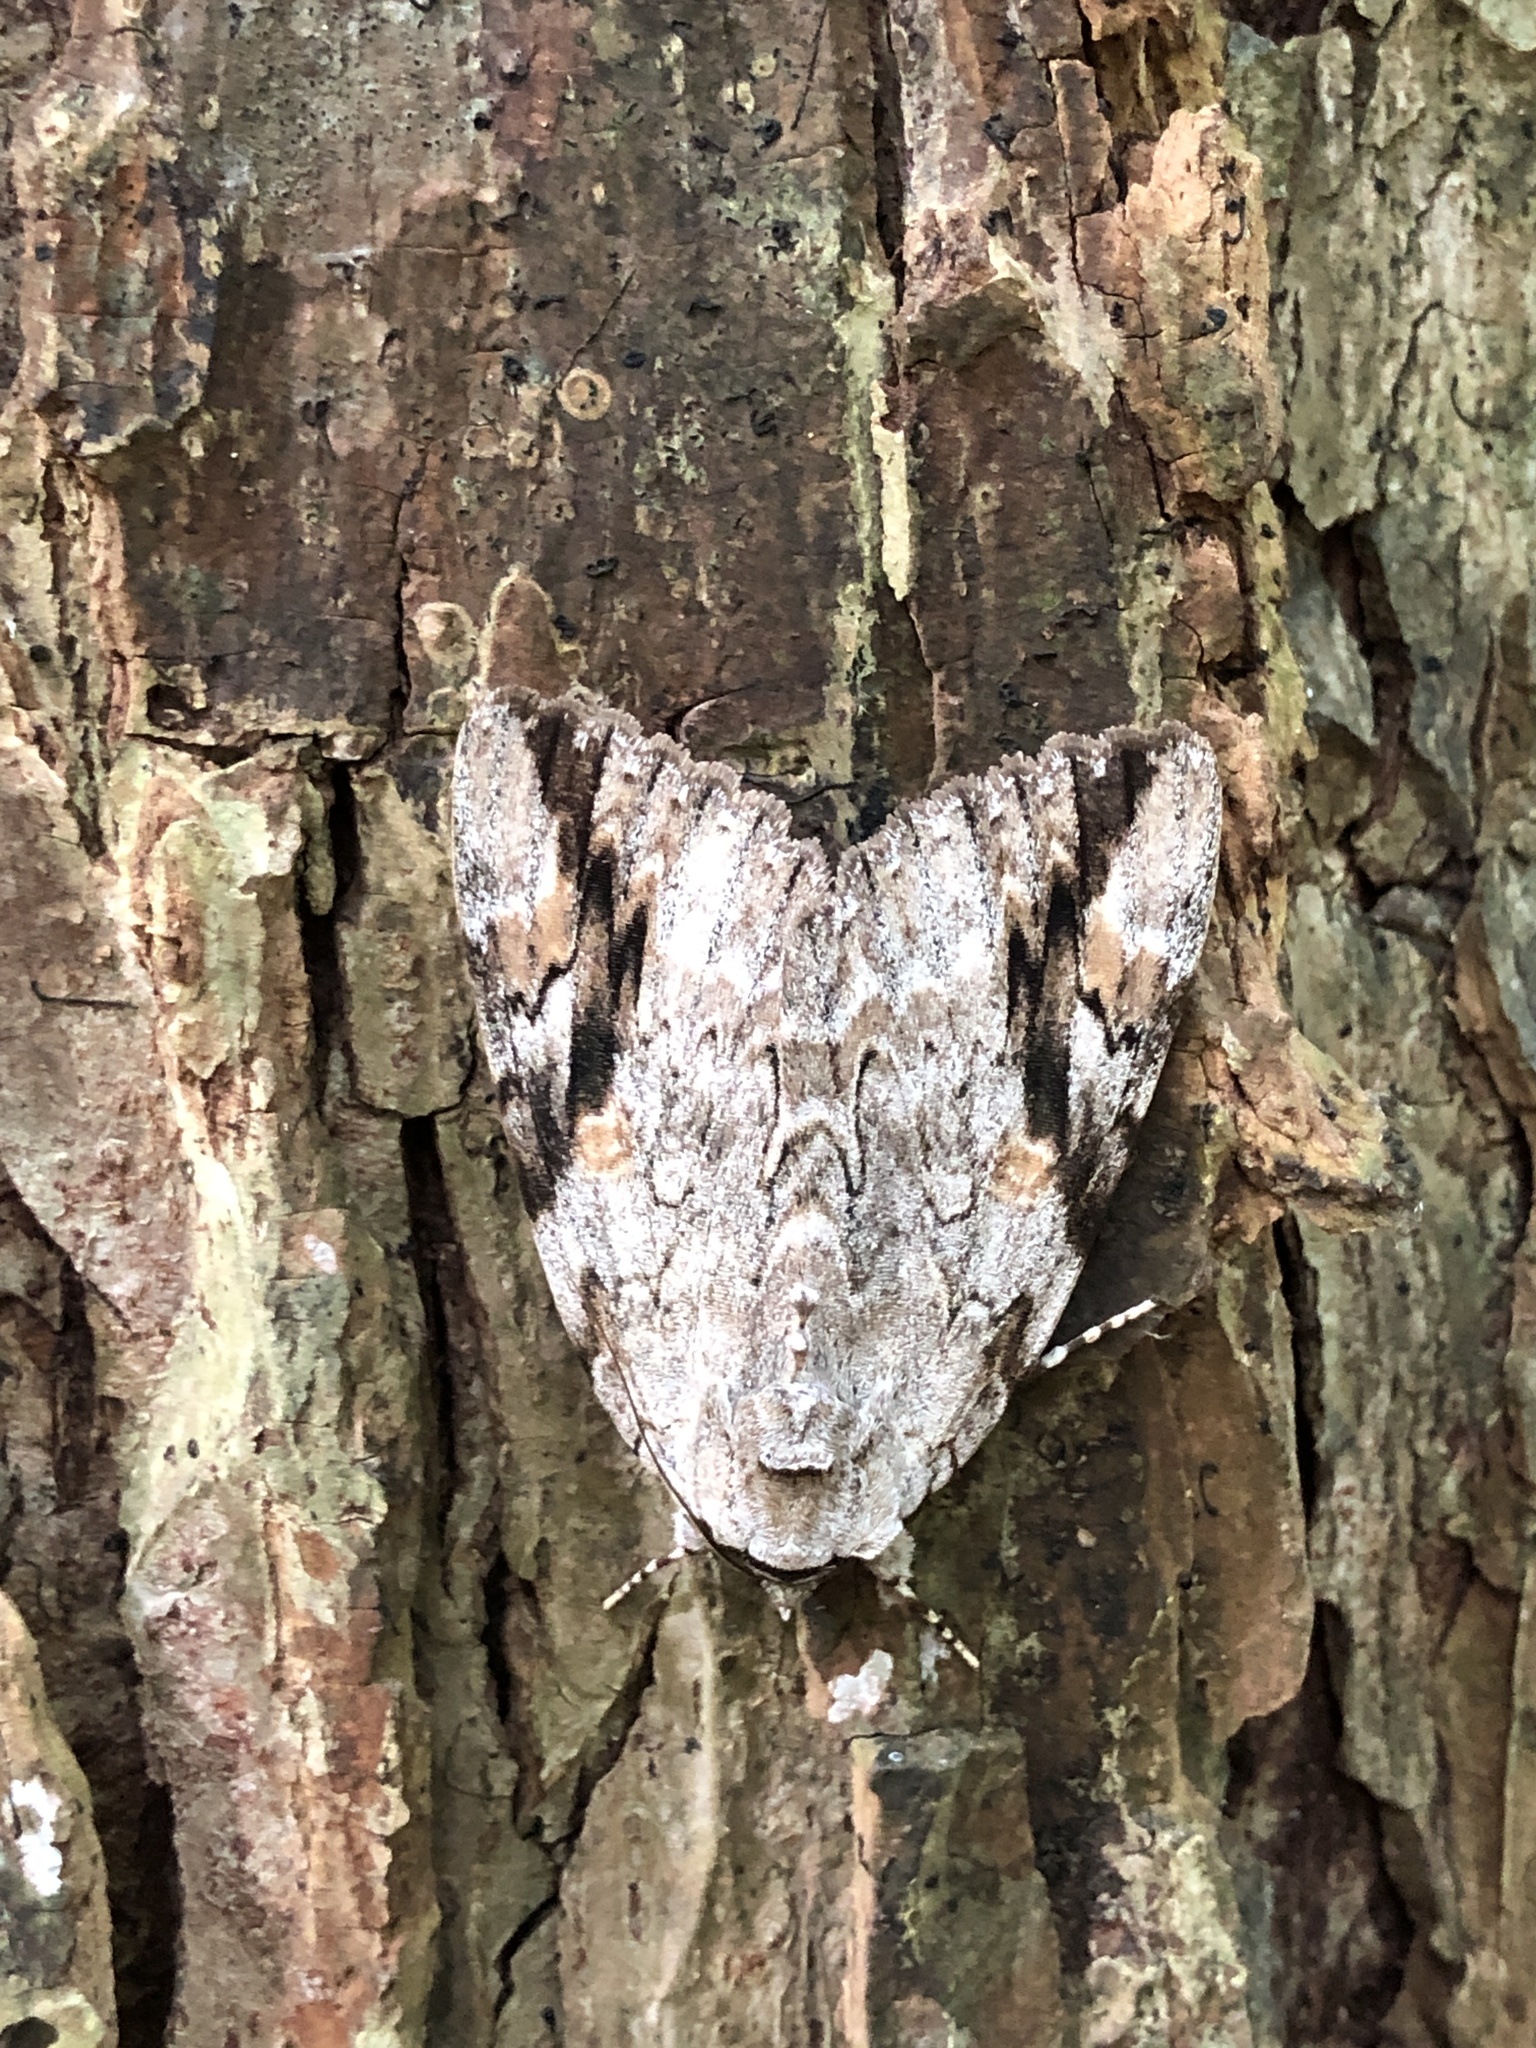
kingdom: Animalia
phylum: Arthropoda
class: Insecta
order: Lepidoptera
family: Erebidae
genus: Catocala
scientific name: Catocala maestosa
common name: Sad underwing
